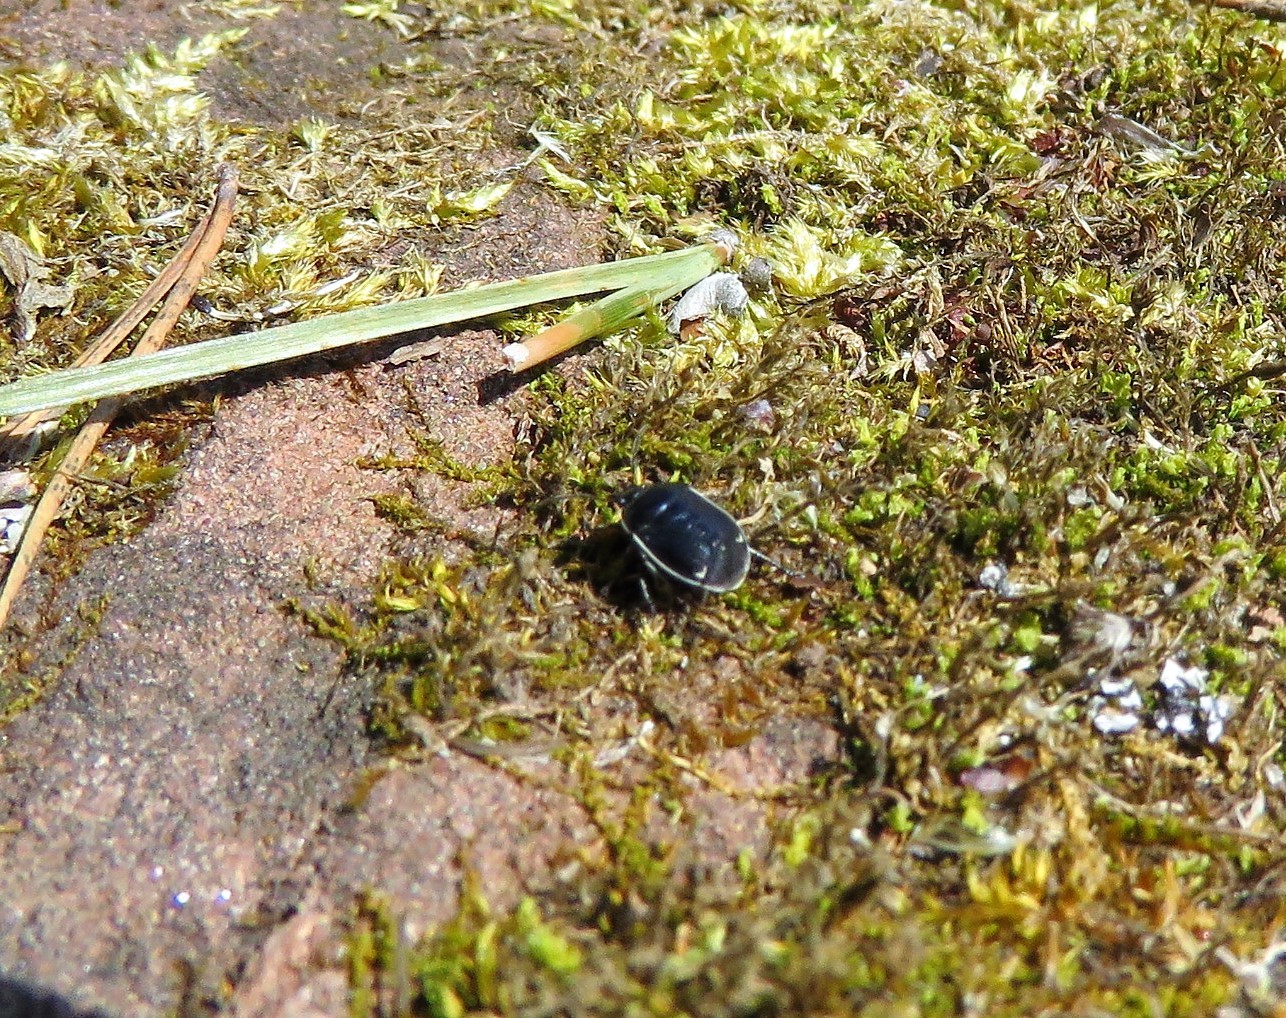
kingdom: Animalia
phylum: Arthropoda
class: Insecta
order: Hemiptera
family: Cydnidae
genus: Sehirus
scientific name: Sehirus cinctus
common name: White-margined burrower bug
